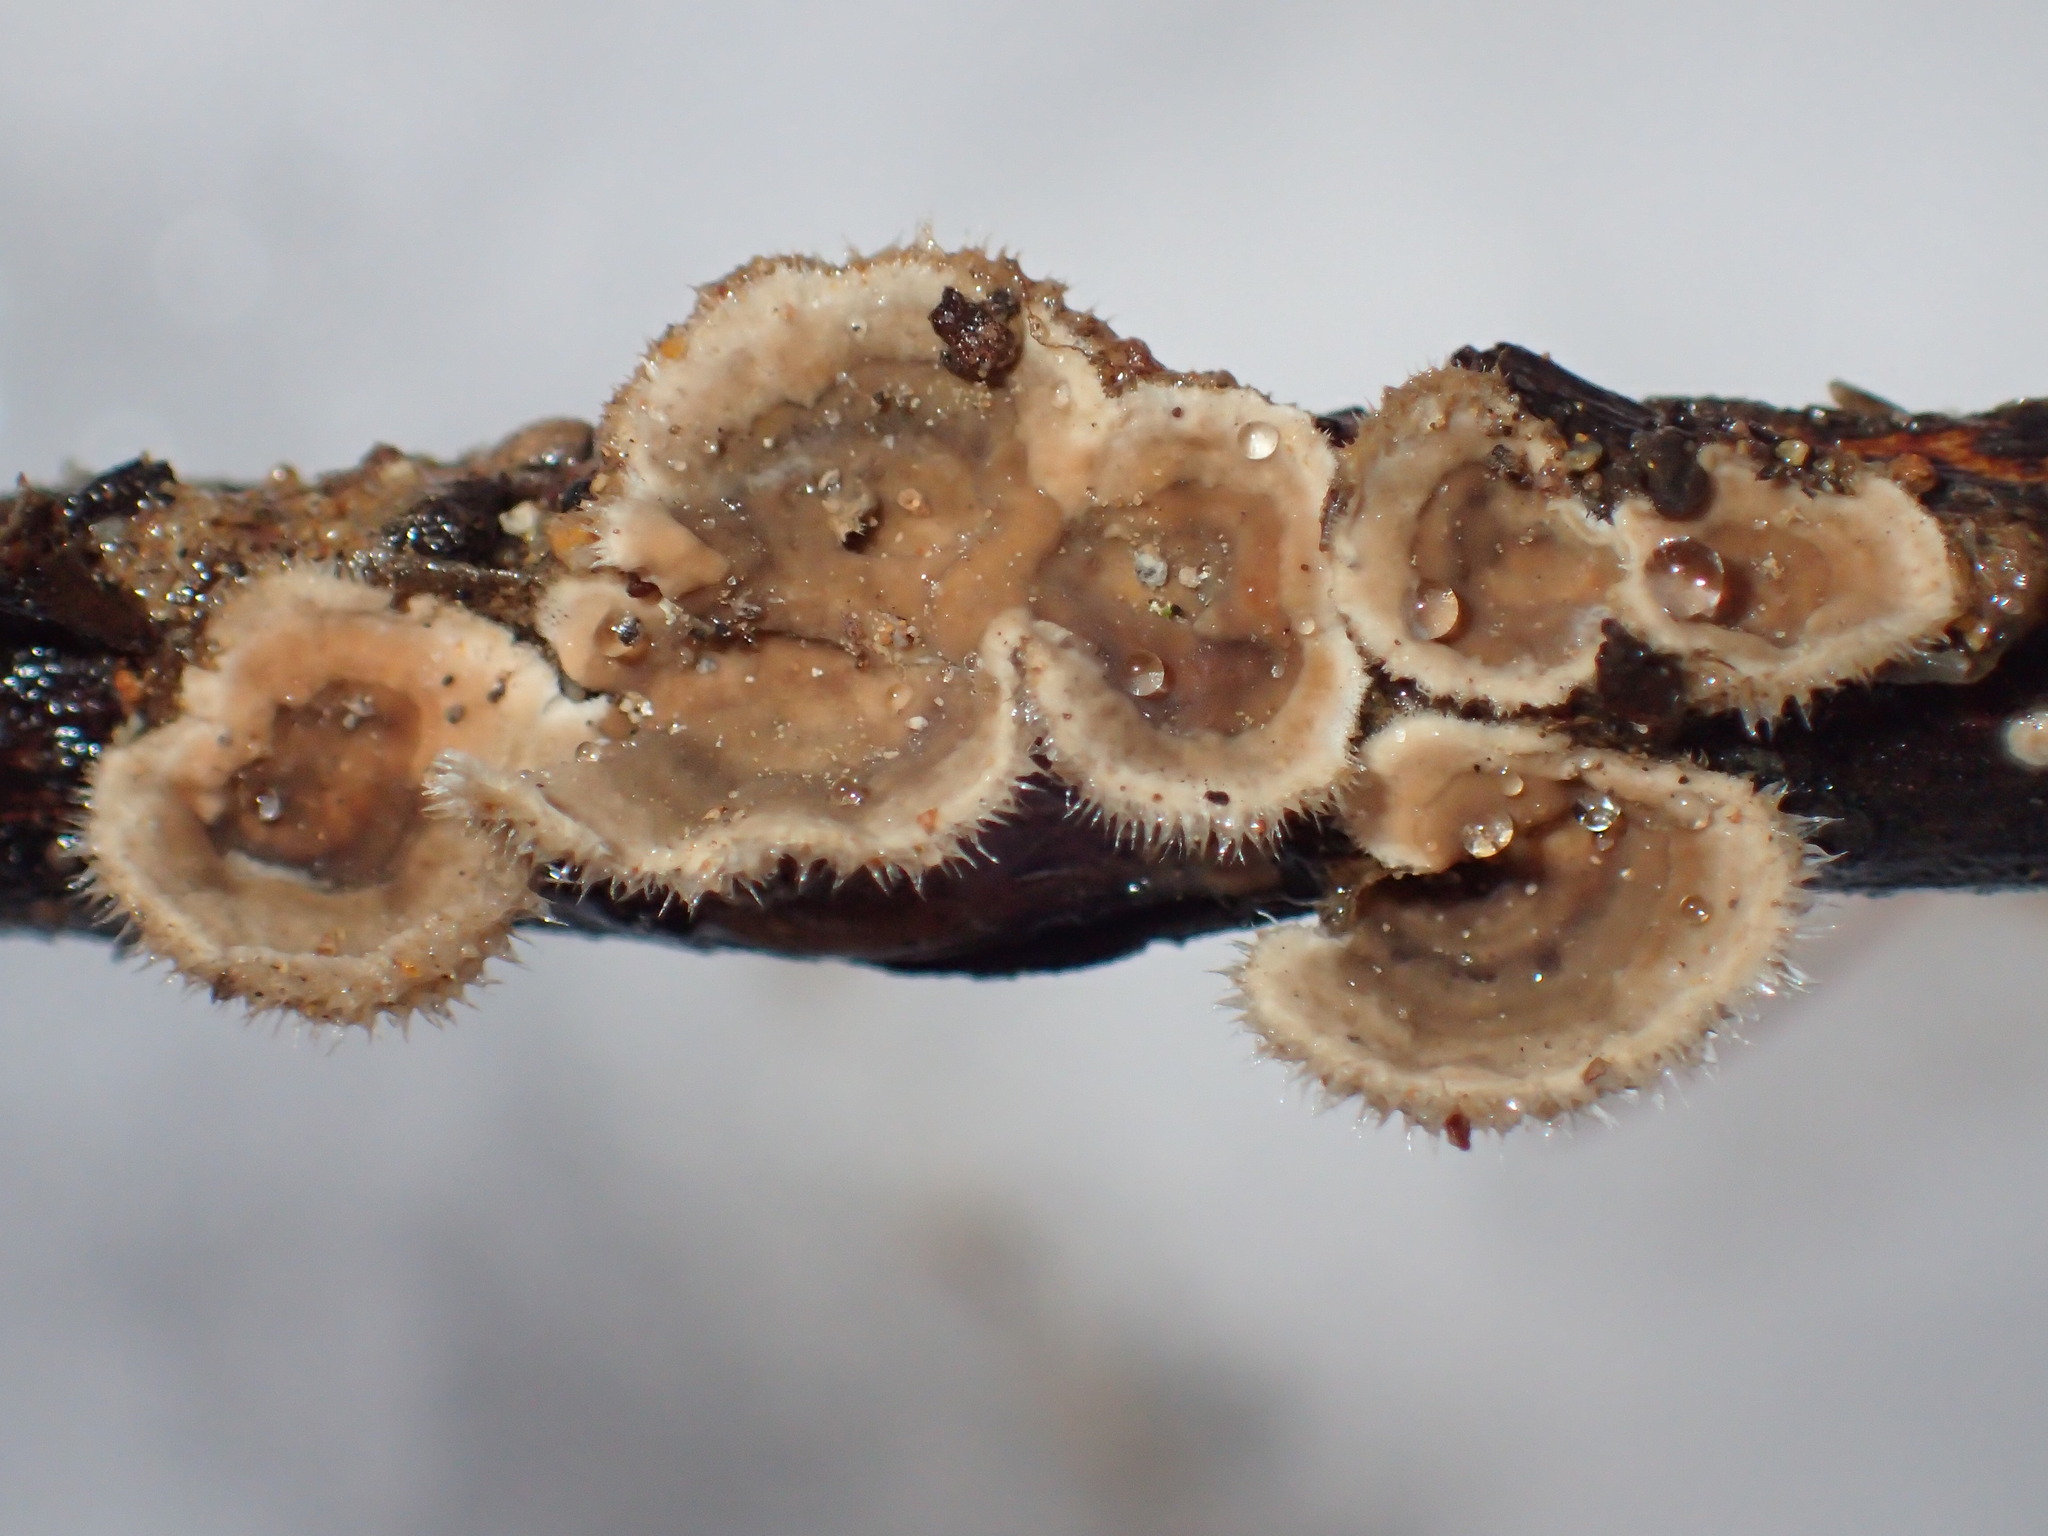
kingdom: Fungi
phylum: Basidiomycota
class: Agaricomycetes
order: Russulales
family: Stereaceae
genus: Stereum
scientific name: Stereum ochraceoflavum
